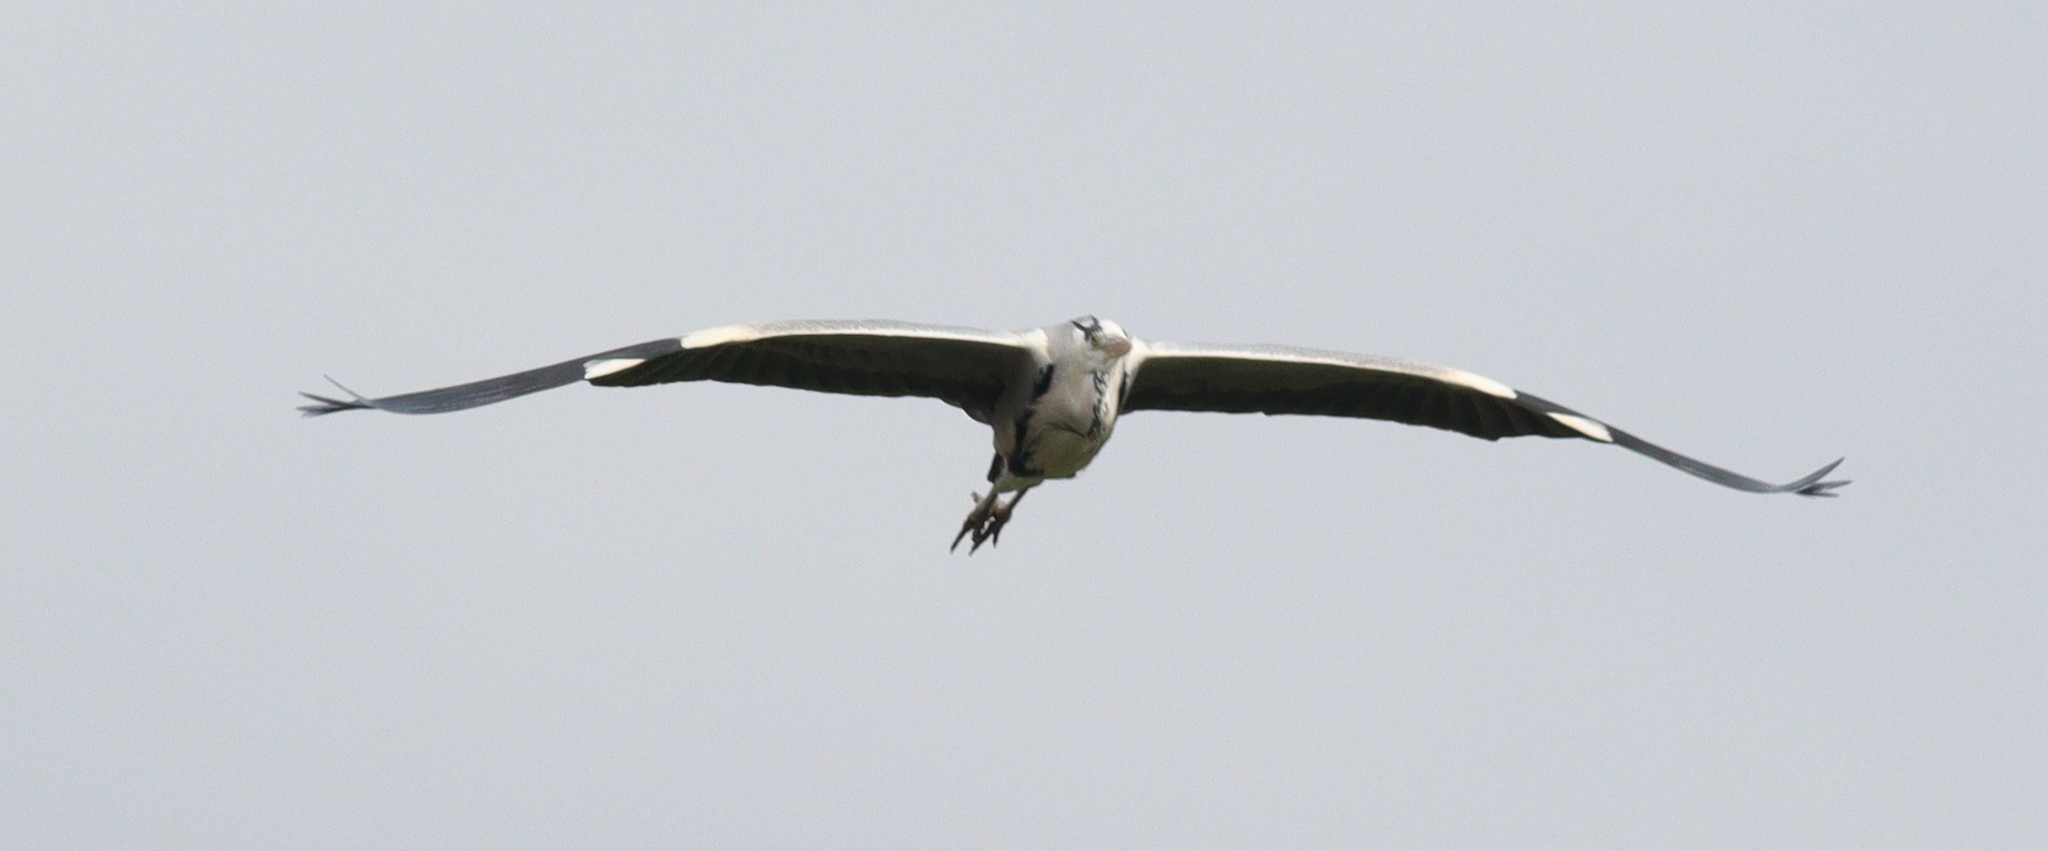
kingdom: Animalia
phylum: Chordata
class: Aves
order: Pelecaniformes
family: Ardeidae
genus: Ardea
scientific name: Ardea cinerea
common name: Grey heron
